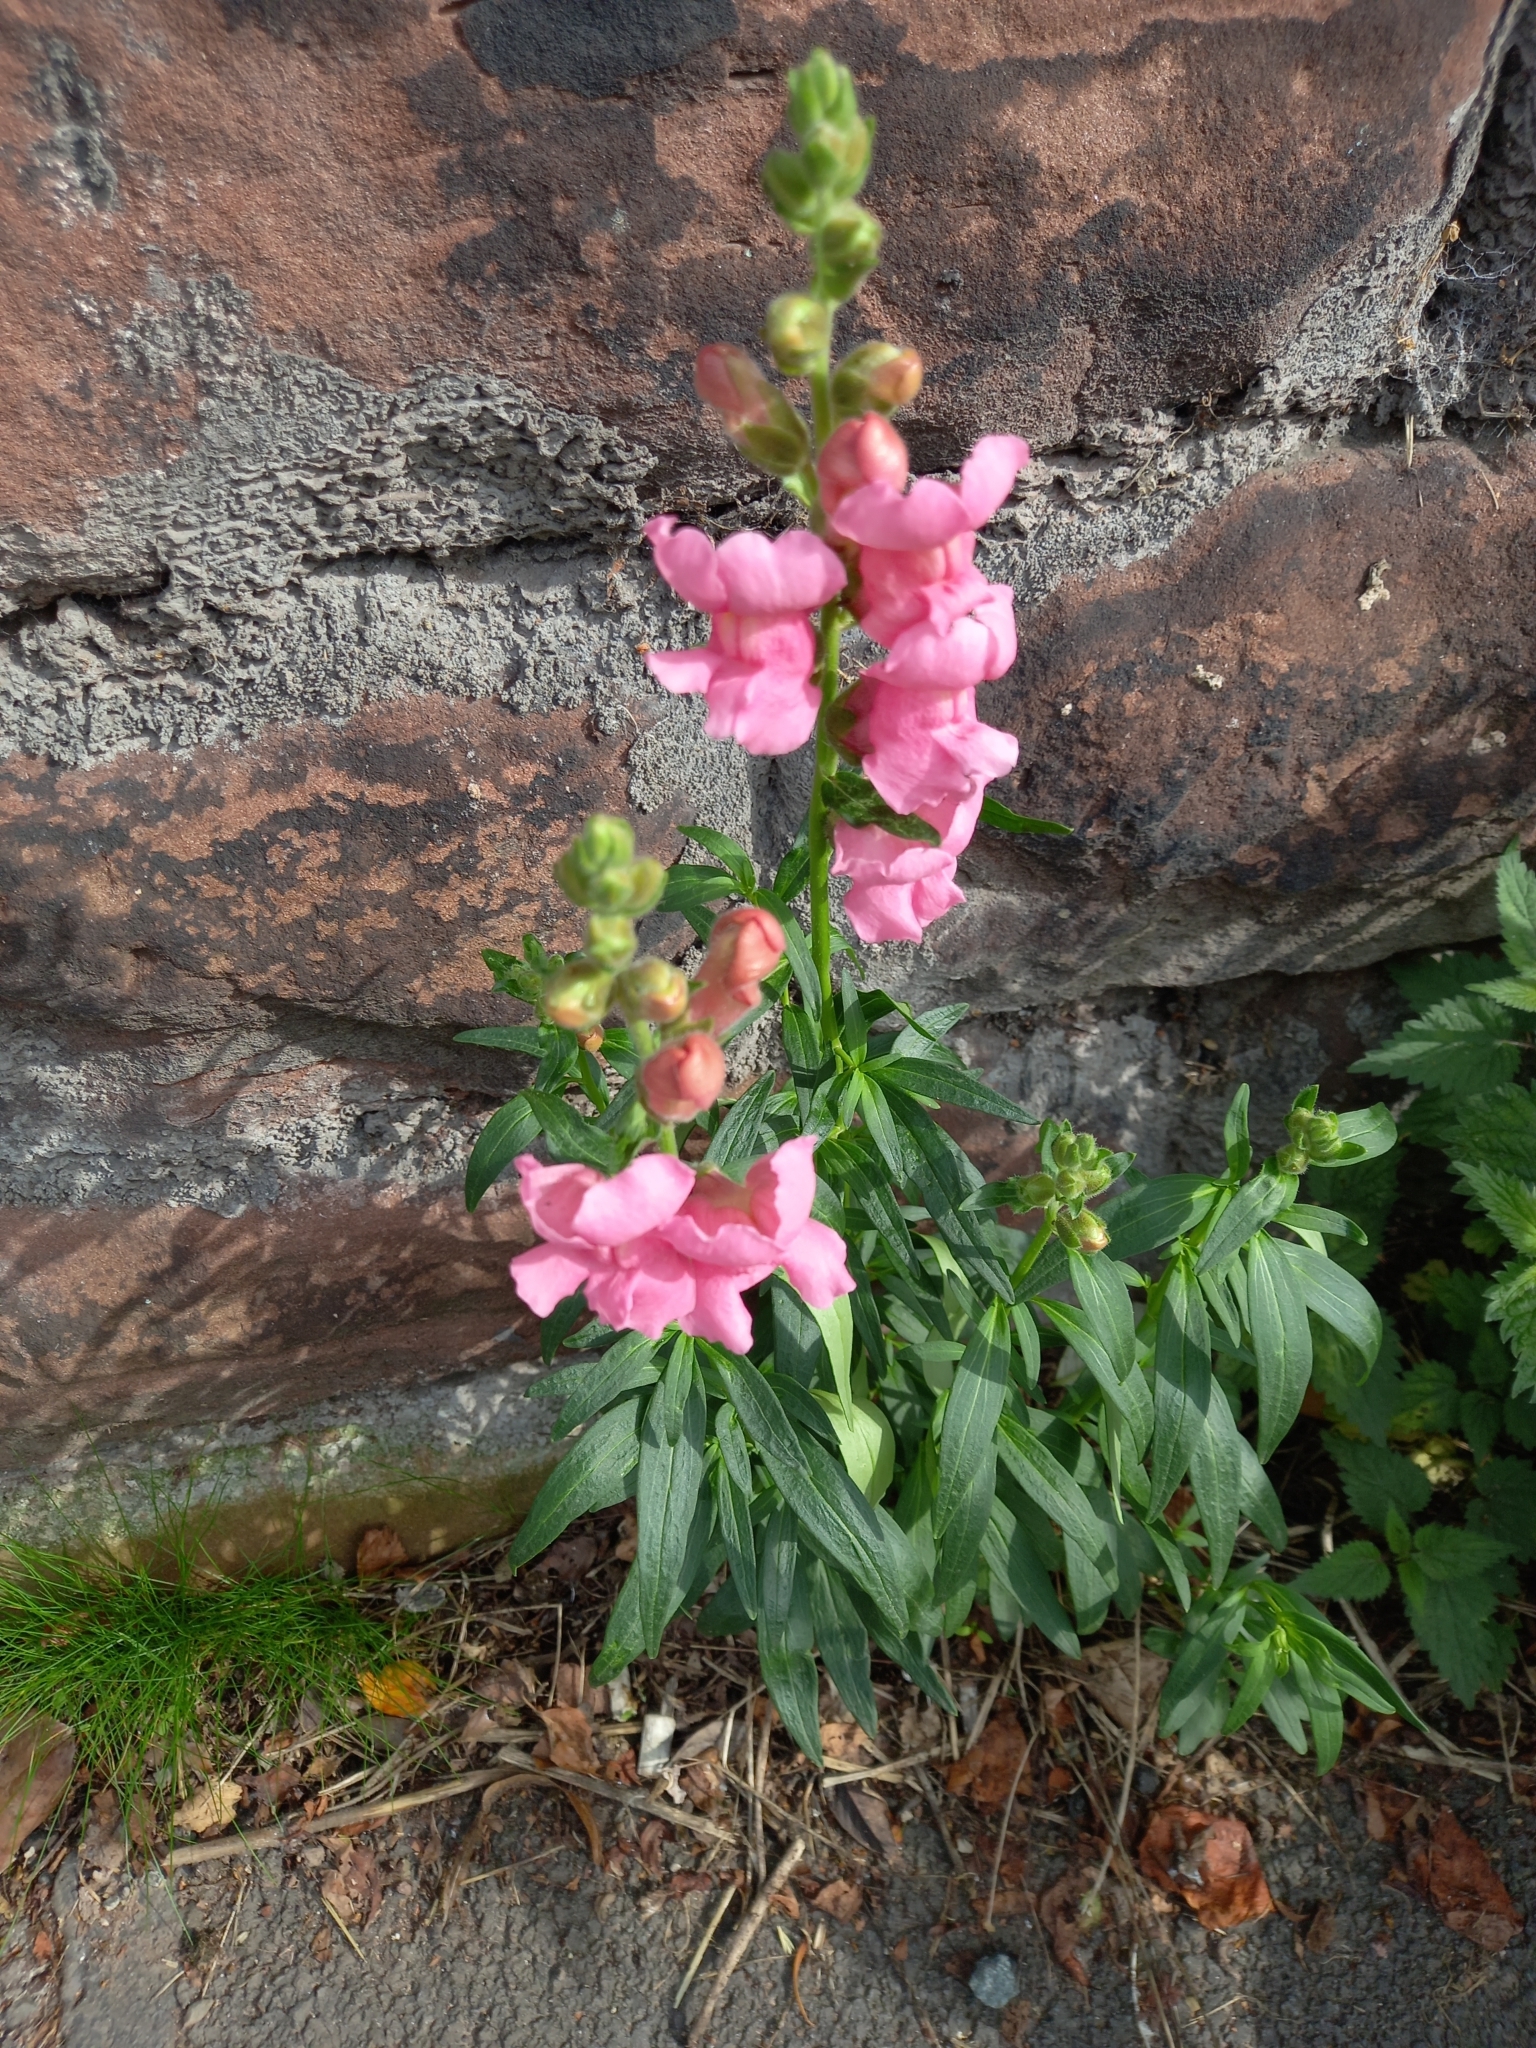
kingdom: Plantae
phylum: Tracheophyta
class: Magnoliopsida
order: Lamiales
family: Plantaginaceae
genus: Antirrhinum
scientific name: Antirrhinum majus
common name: Snapdragon
